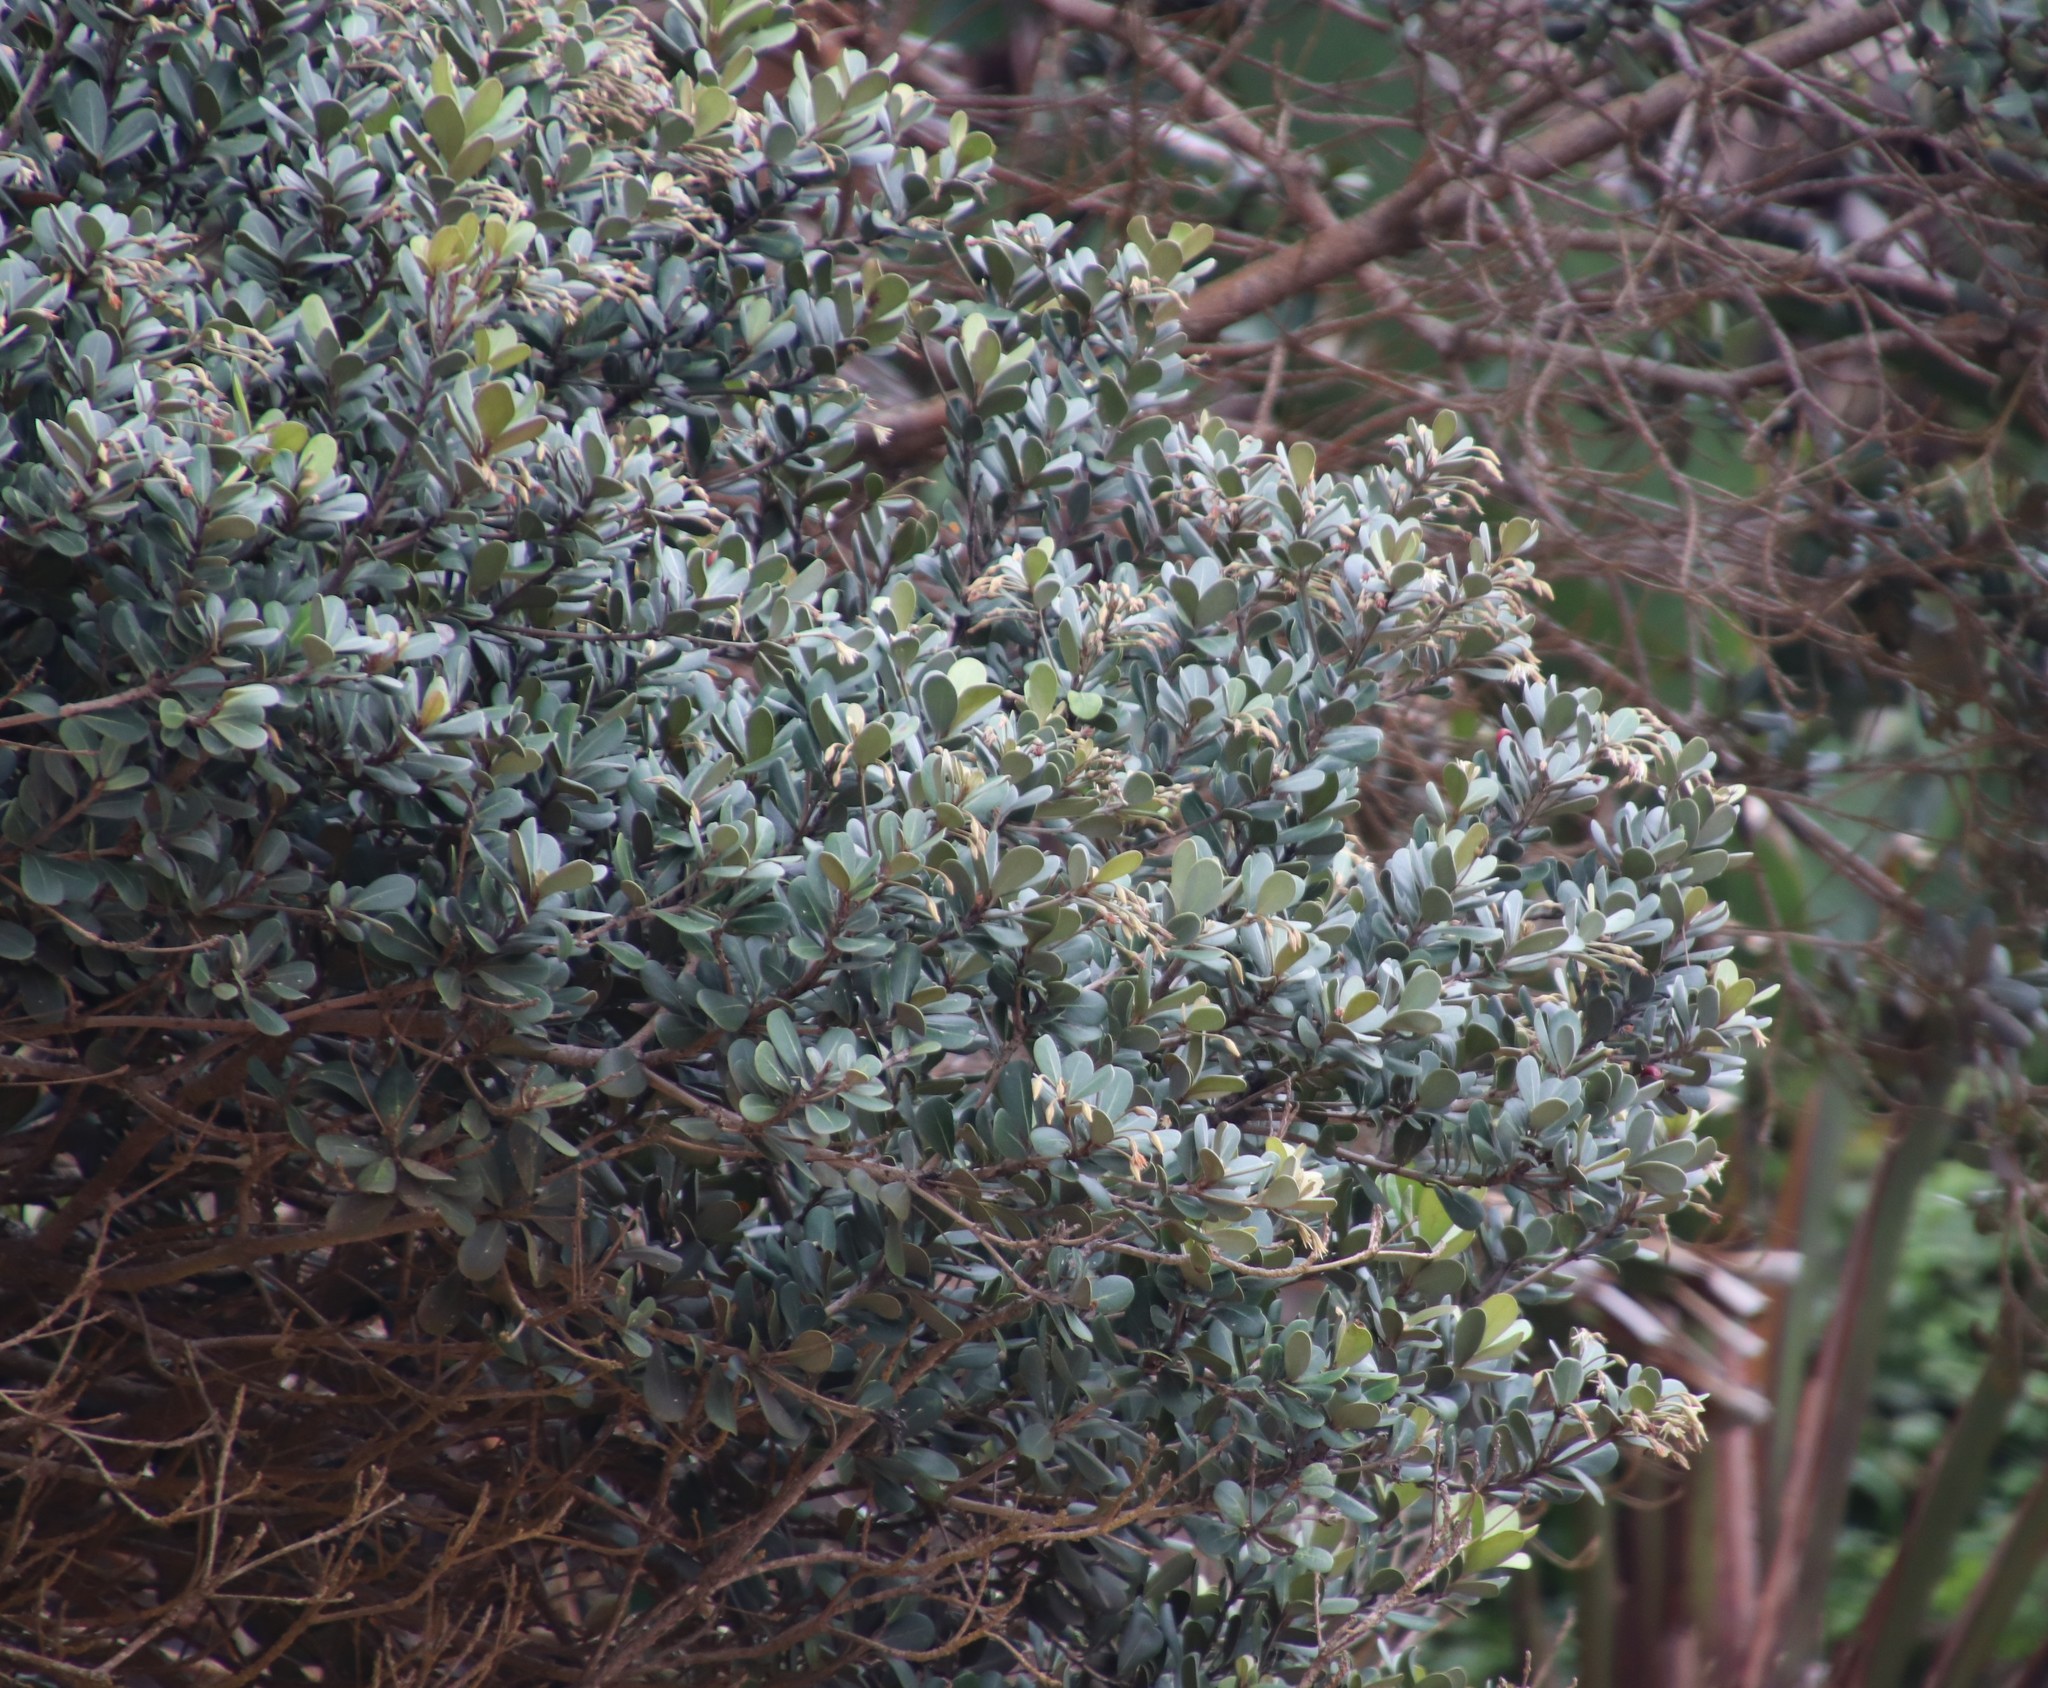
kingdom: Plantae
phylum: Tracheophyta
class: Magnoliopsida
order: Ericales
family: Sapotaceae
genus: Mimusops
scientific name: Mimusops caffra
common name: Coastal red milkwood
